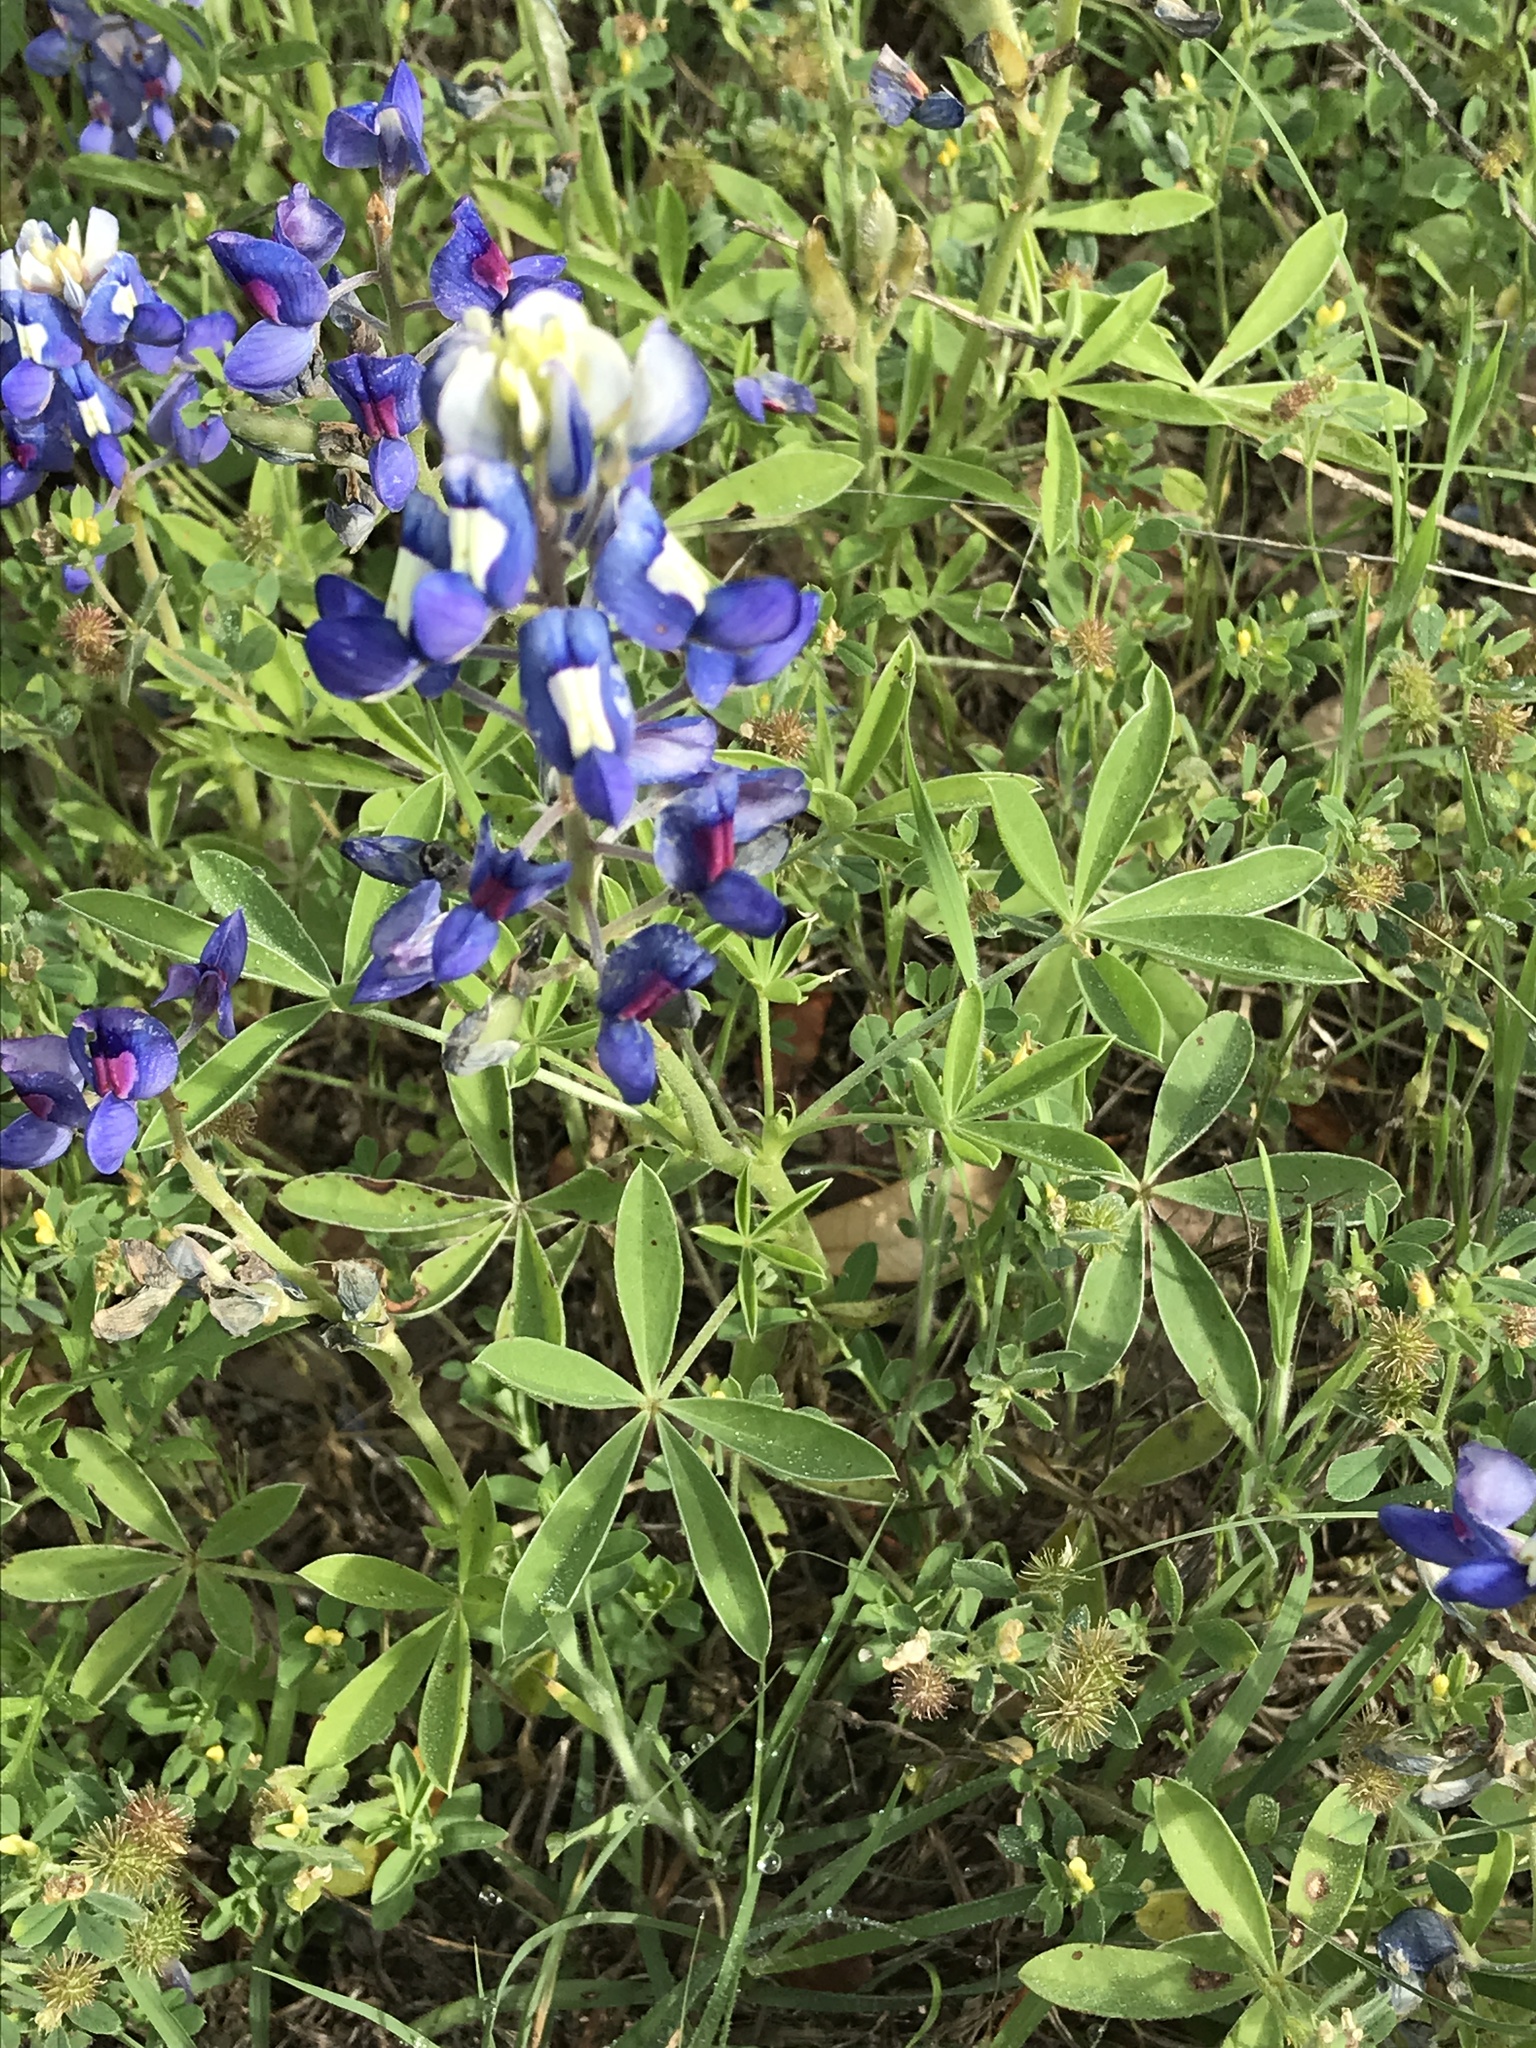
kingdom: Plantae
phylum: Tracheophyta
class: Magnoliopsida
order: Fabales
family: Fabaceae
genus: Lupinus
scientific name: Lupinus texensis
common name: Texas bluebonnet
